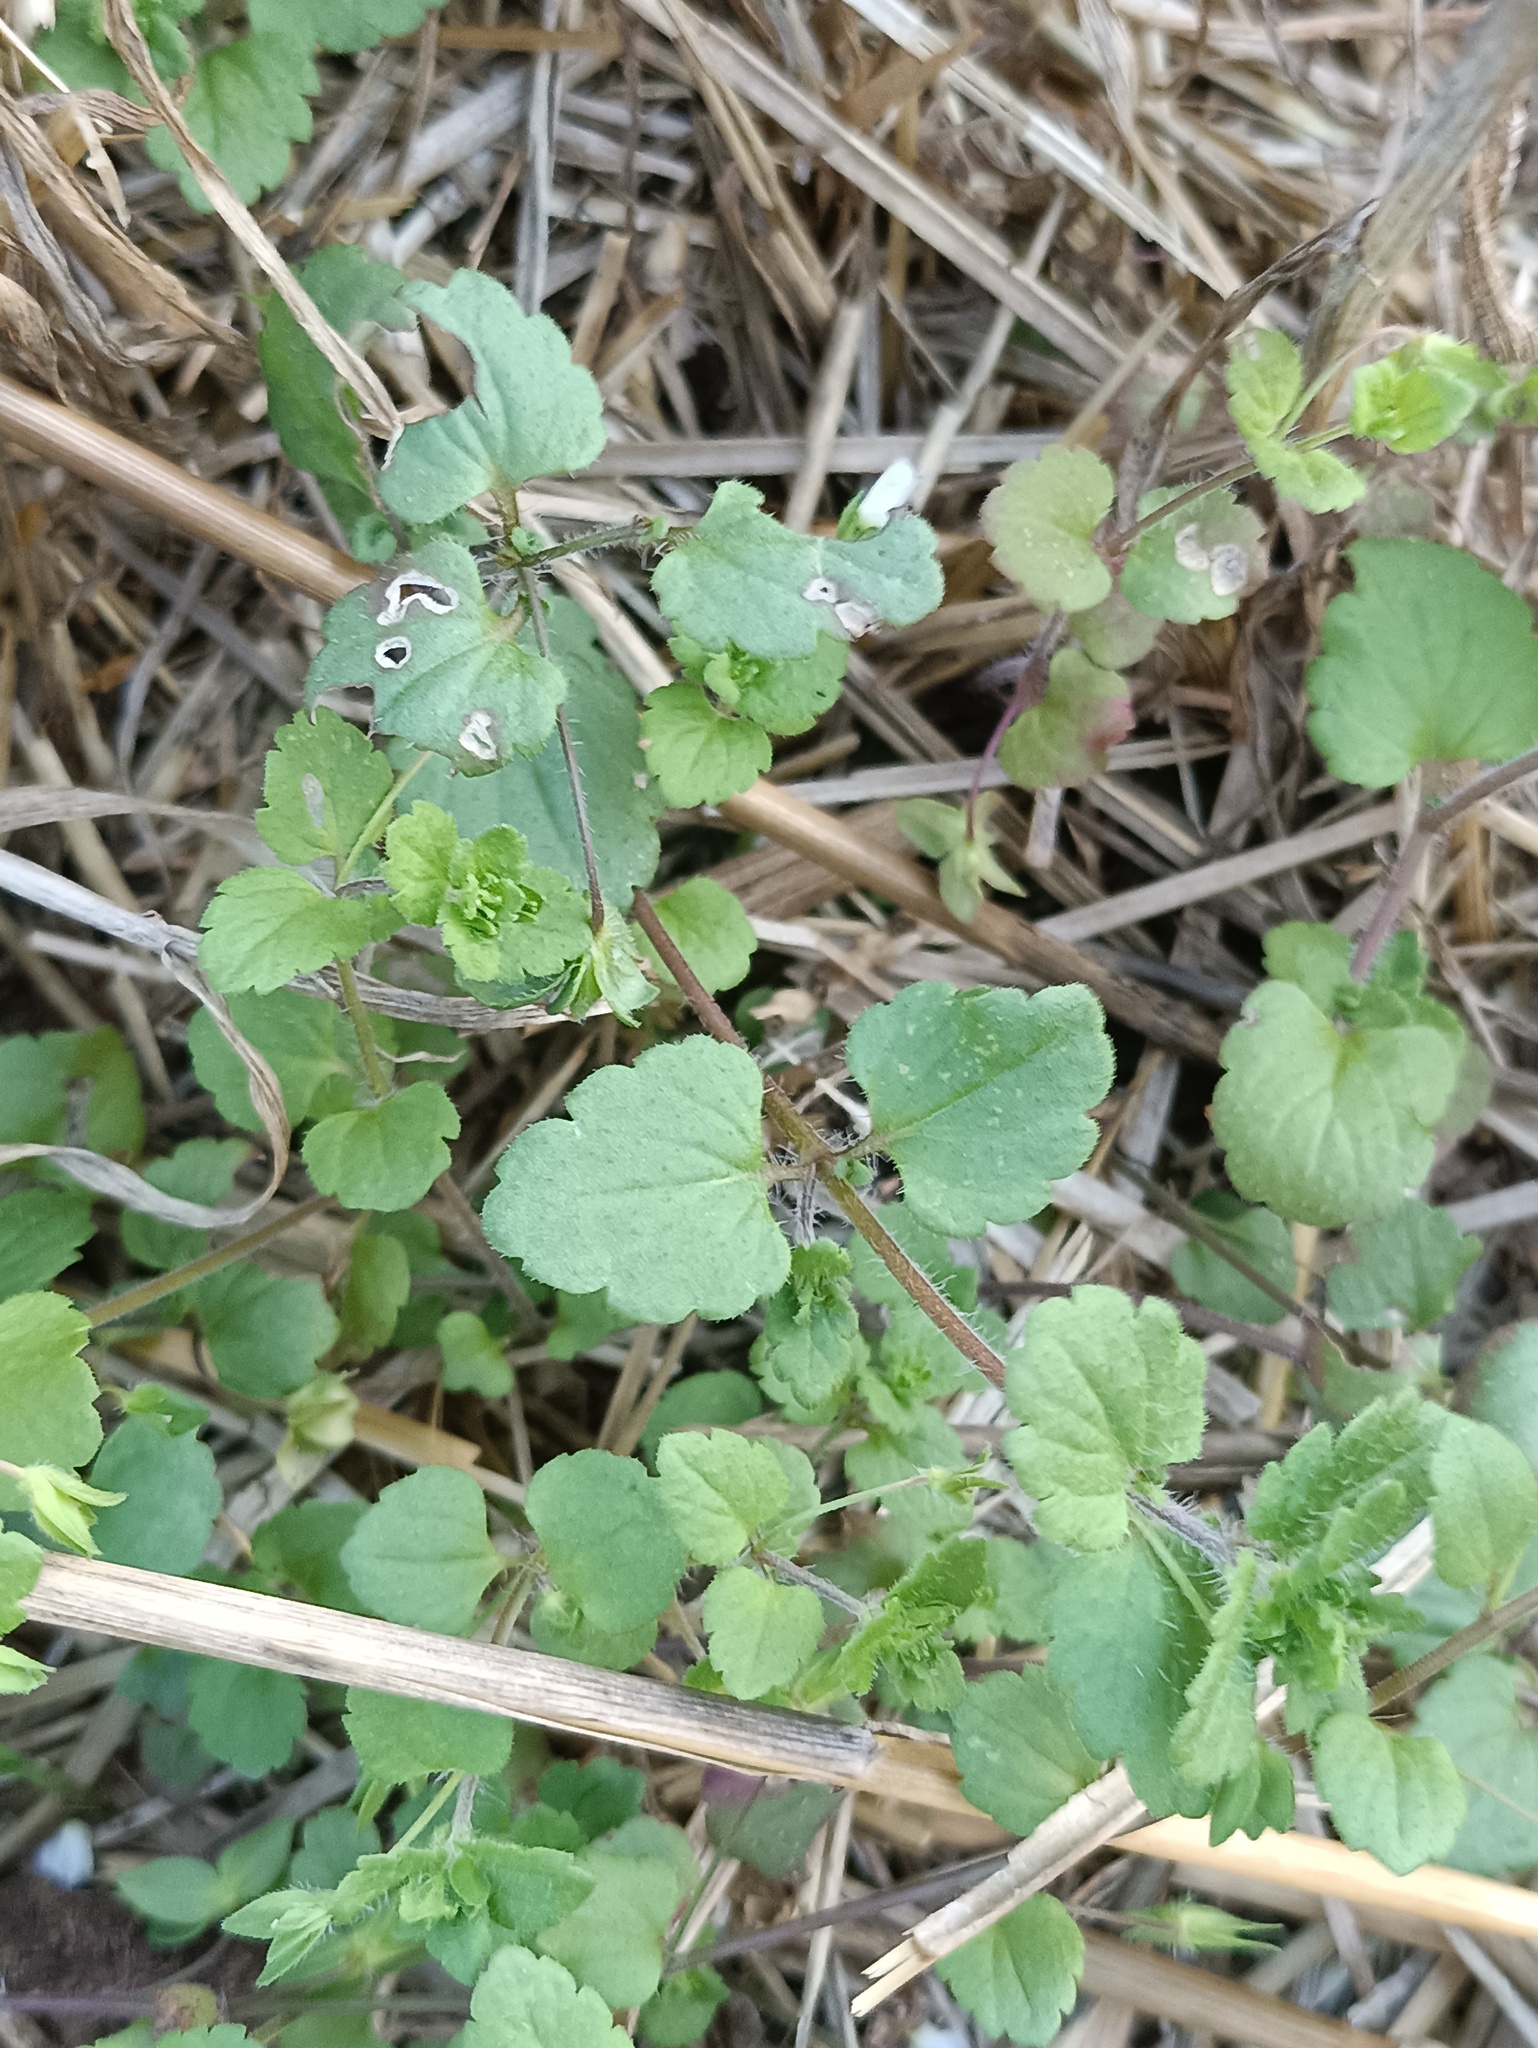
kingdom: Plantae
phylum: Tracheophyta
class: Magnoliopsida
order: Lamiales
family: Plantaginaceae
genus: Veronica
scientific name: Veronica persica
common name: Common field-speedwell
